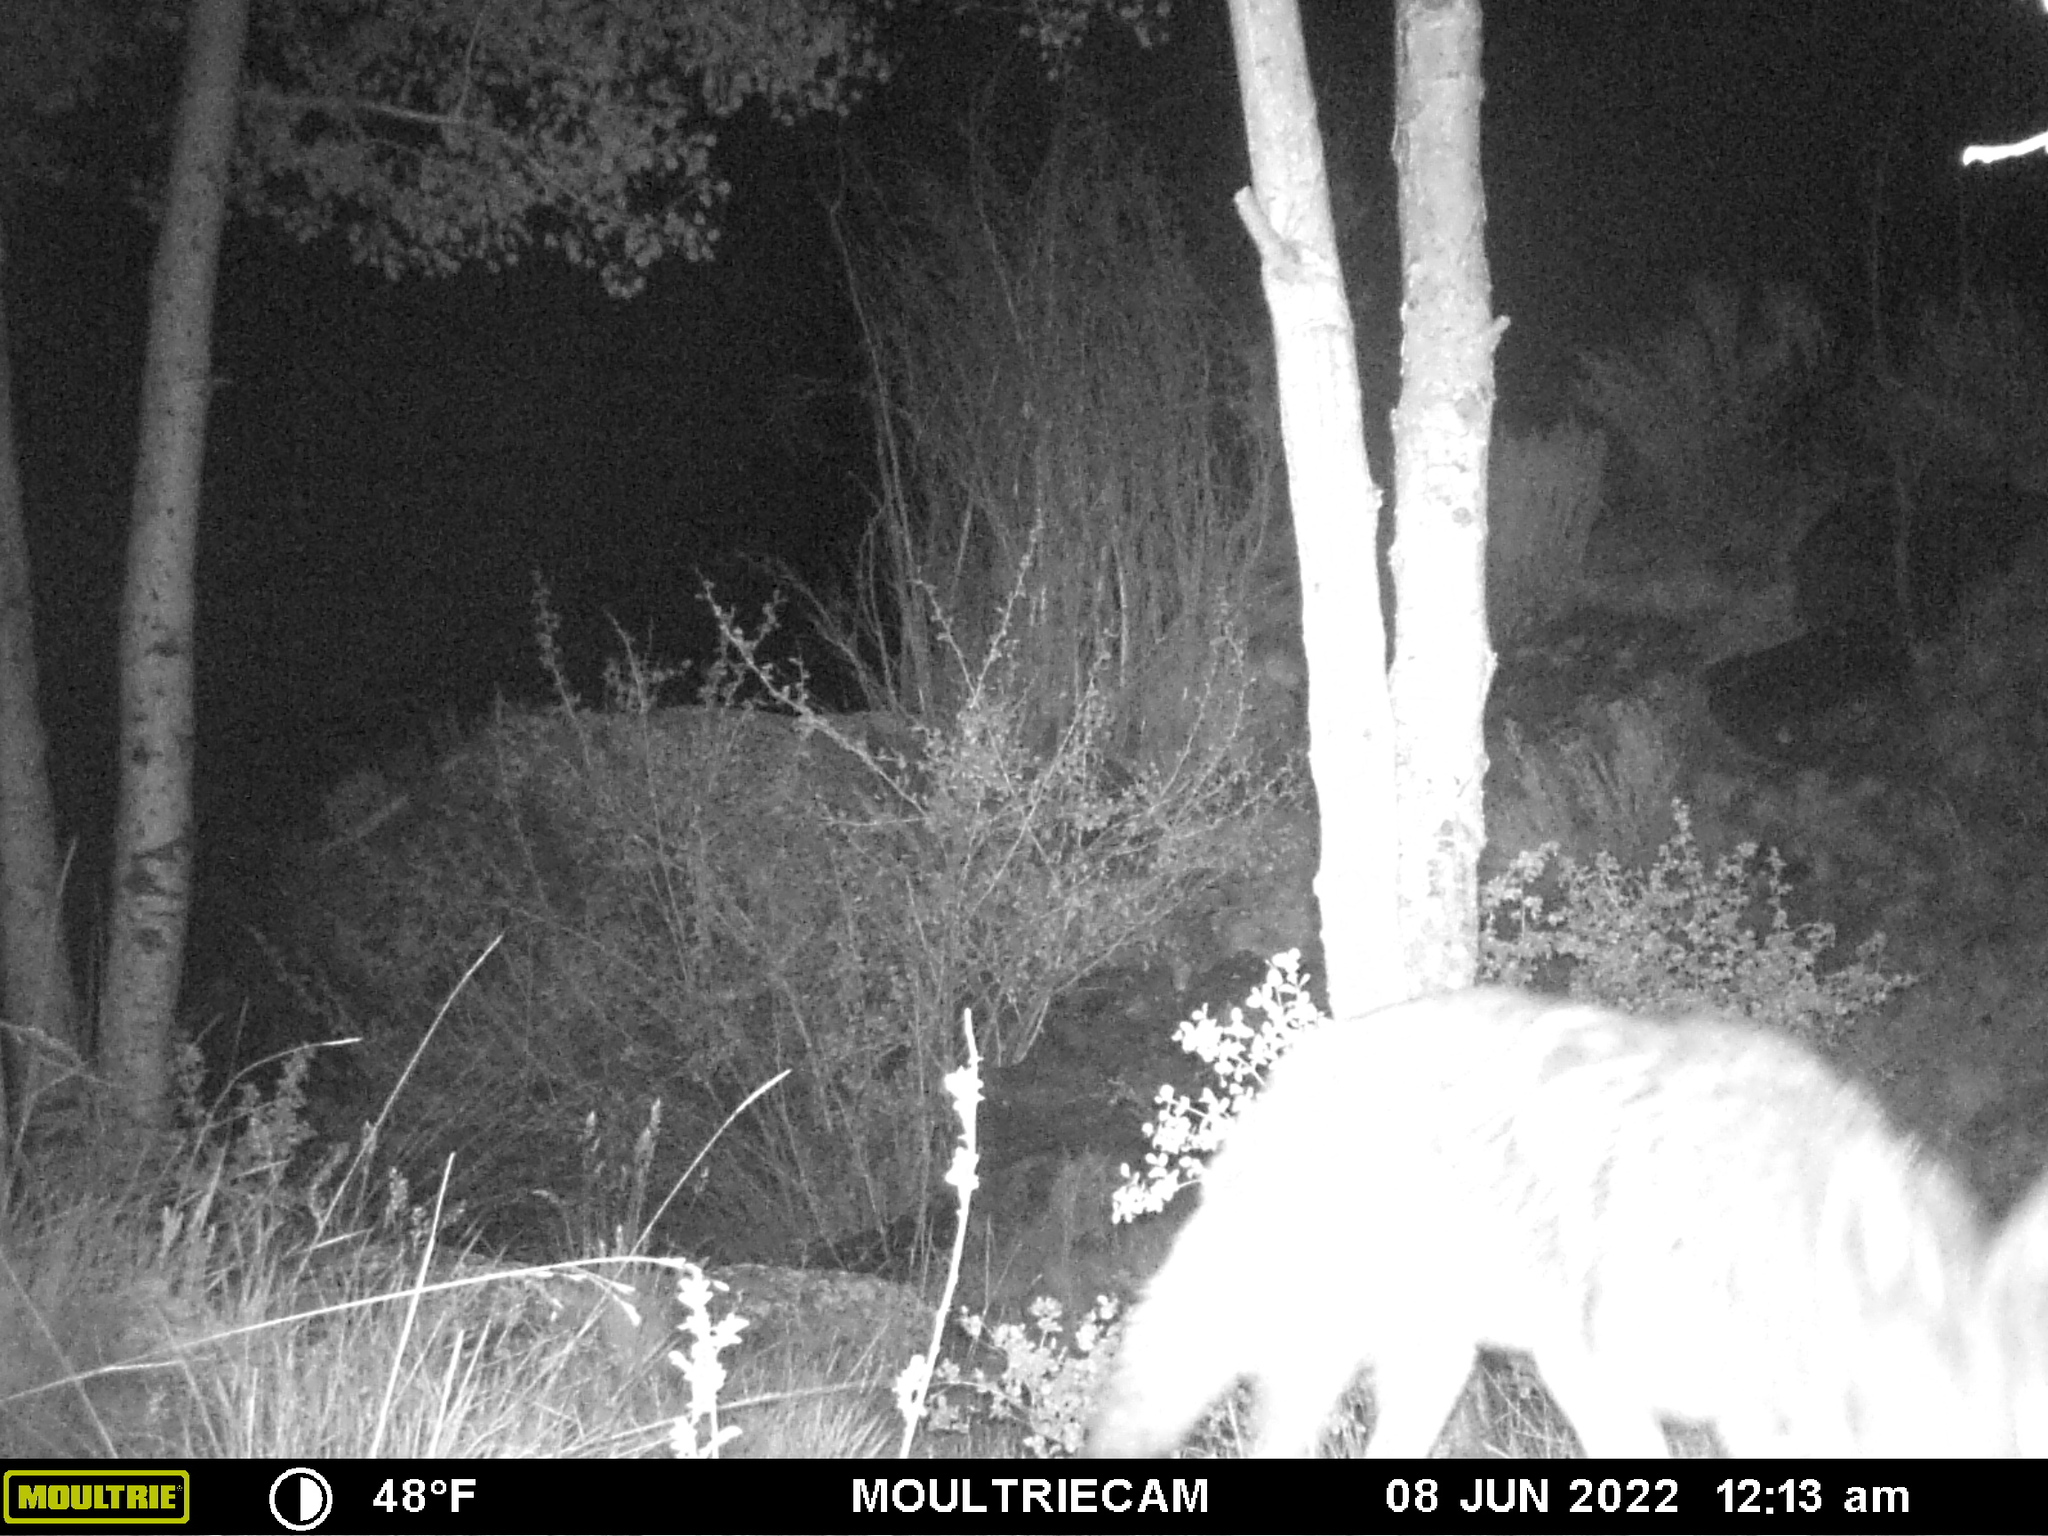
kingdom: Animalia
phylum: Chordata
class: Mammalia
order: Carnivora
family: Canidae
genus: Canis
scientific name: Canis latrans
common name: Coyote
